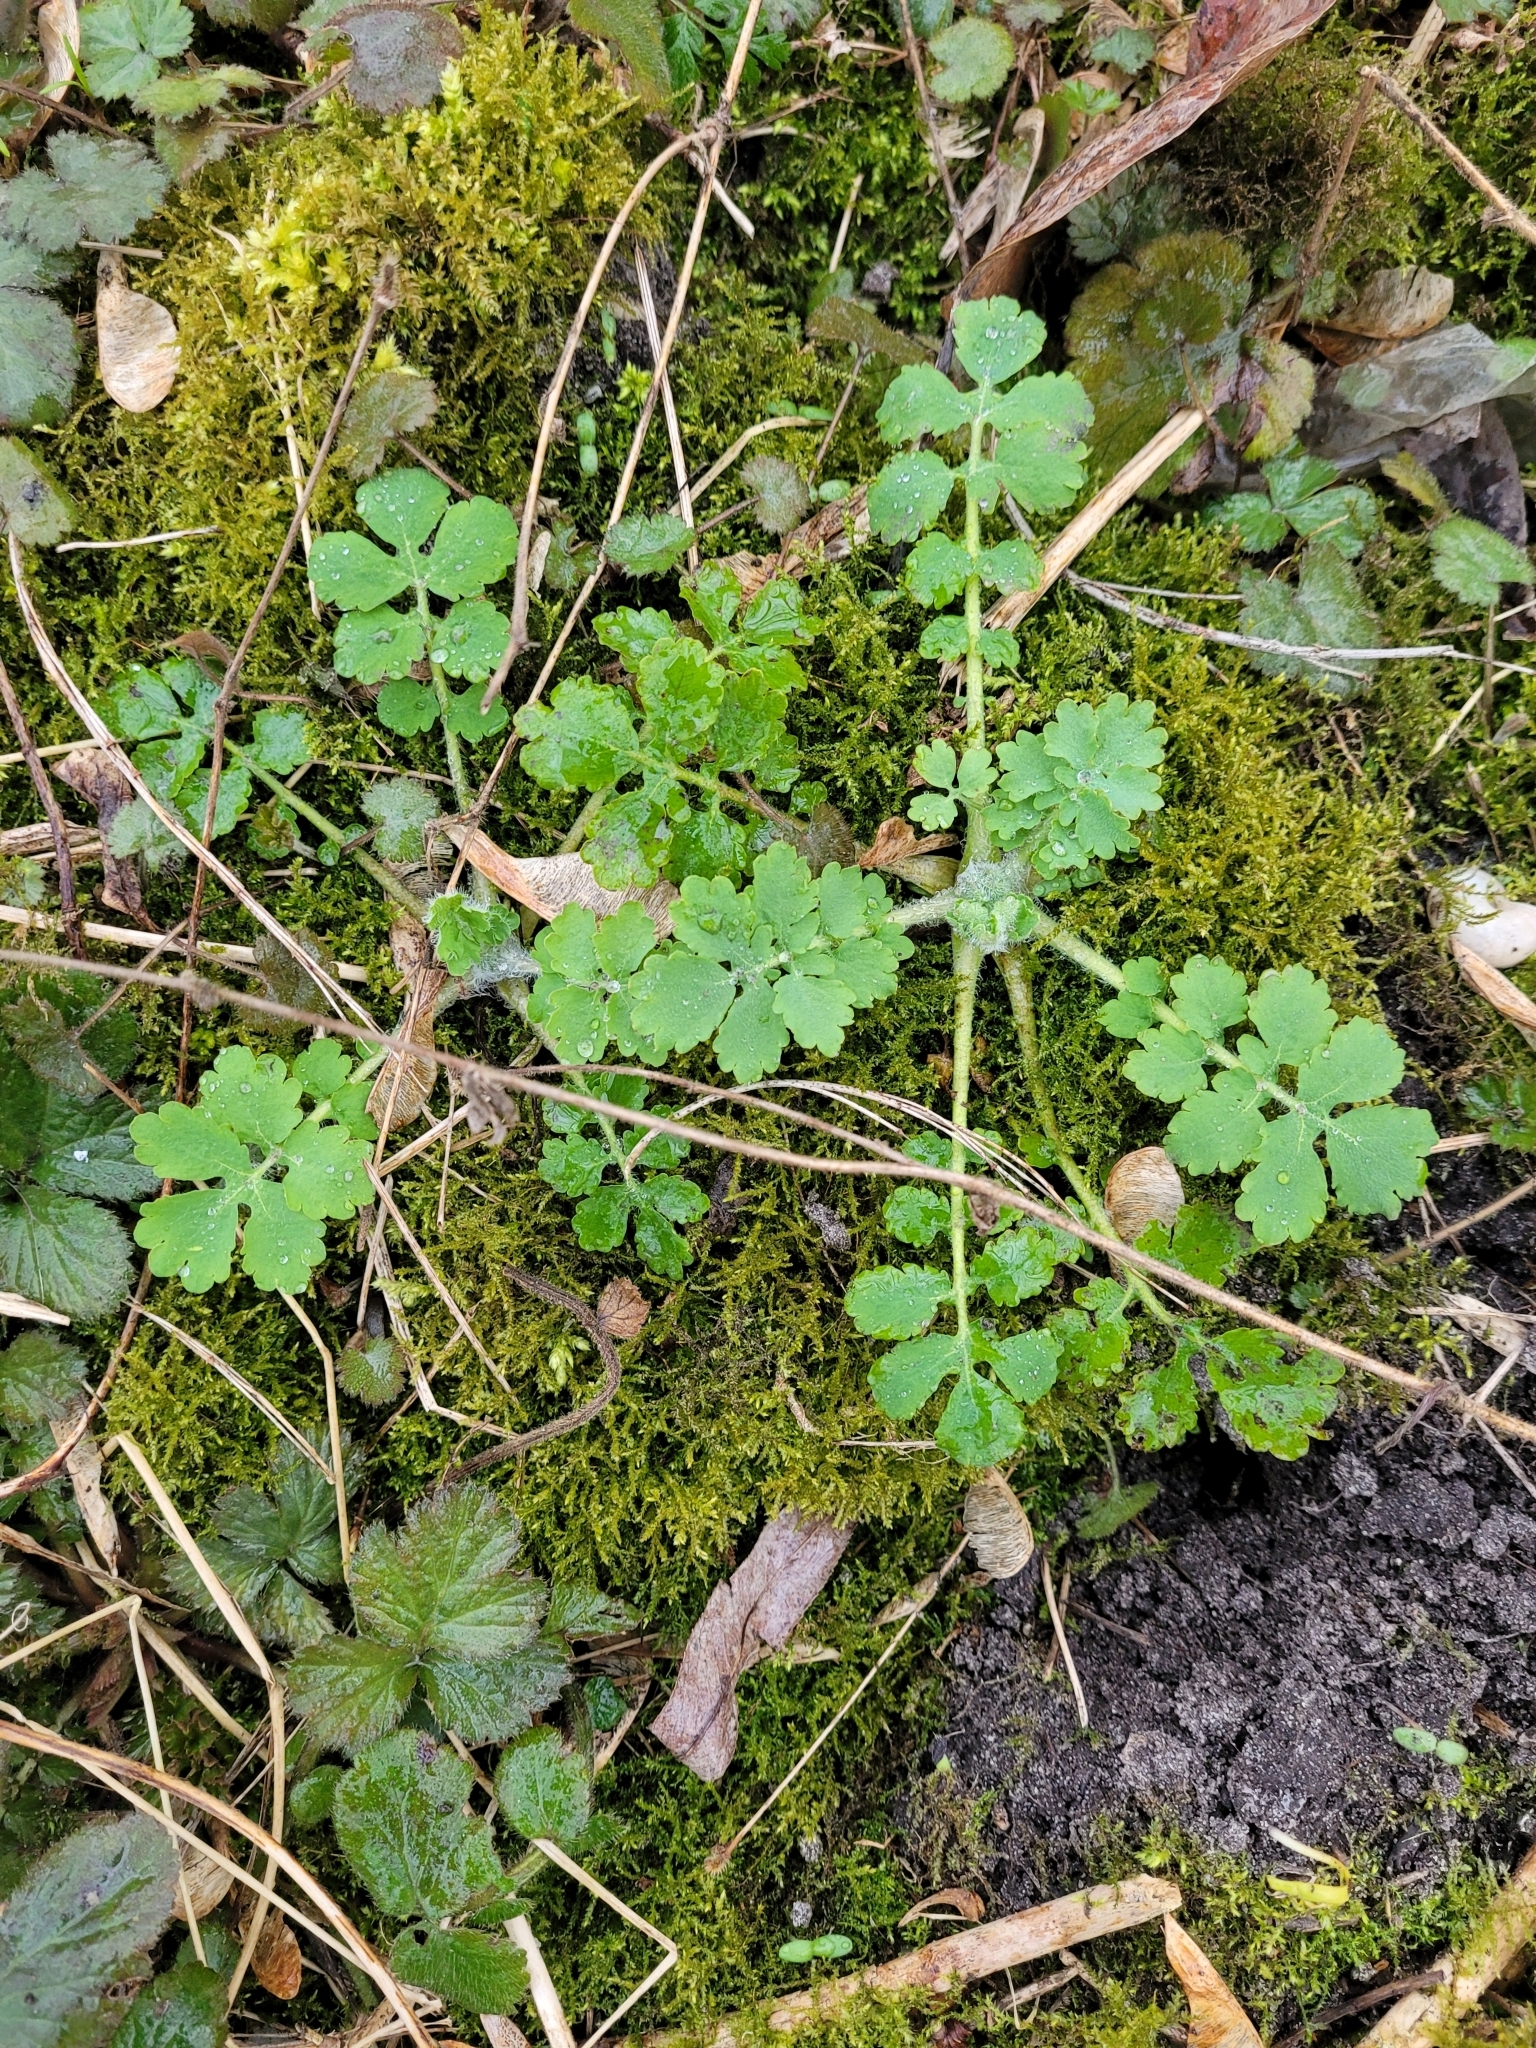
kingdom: Plantae
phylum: Tracheophyta
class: Magnoliopsida
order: Ranunculales
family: Papaveraceae
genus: Chelidonium
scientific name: Chelidonium majus
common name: Greater celandine
